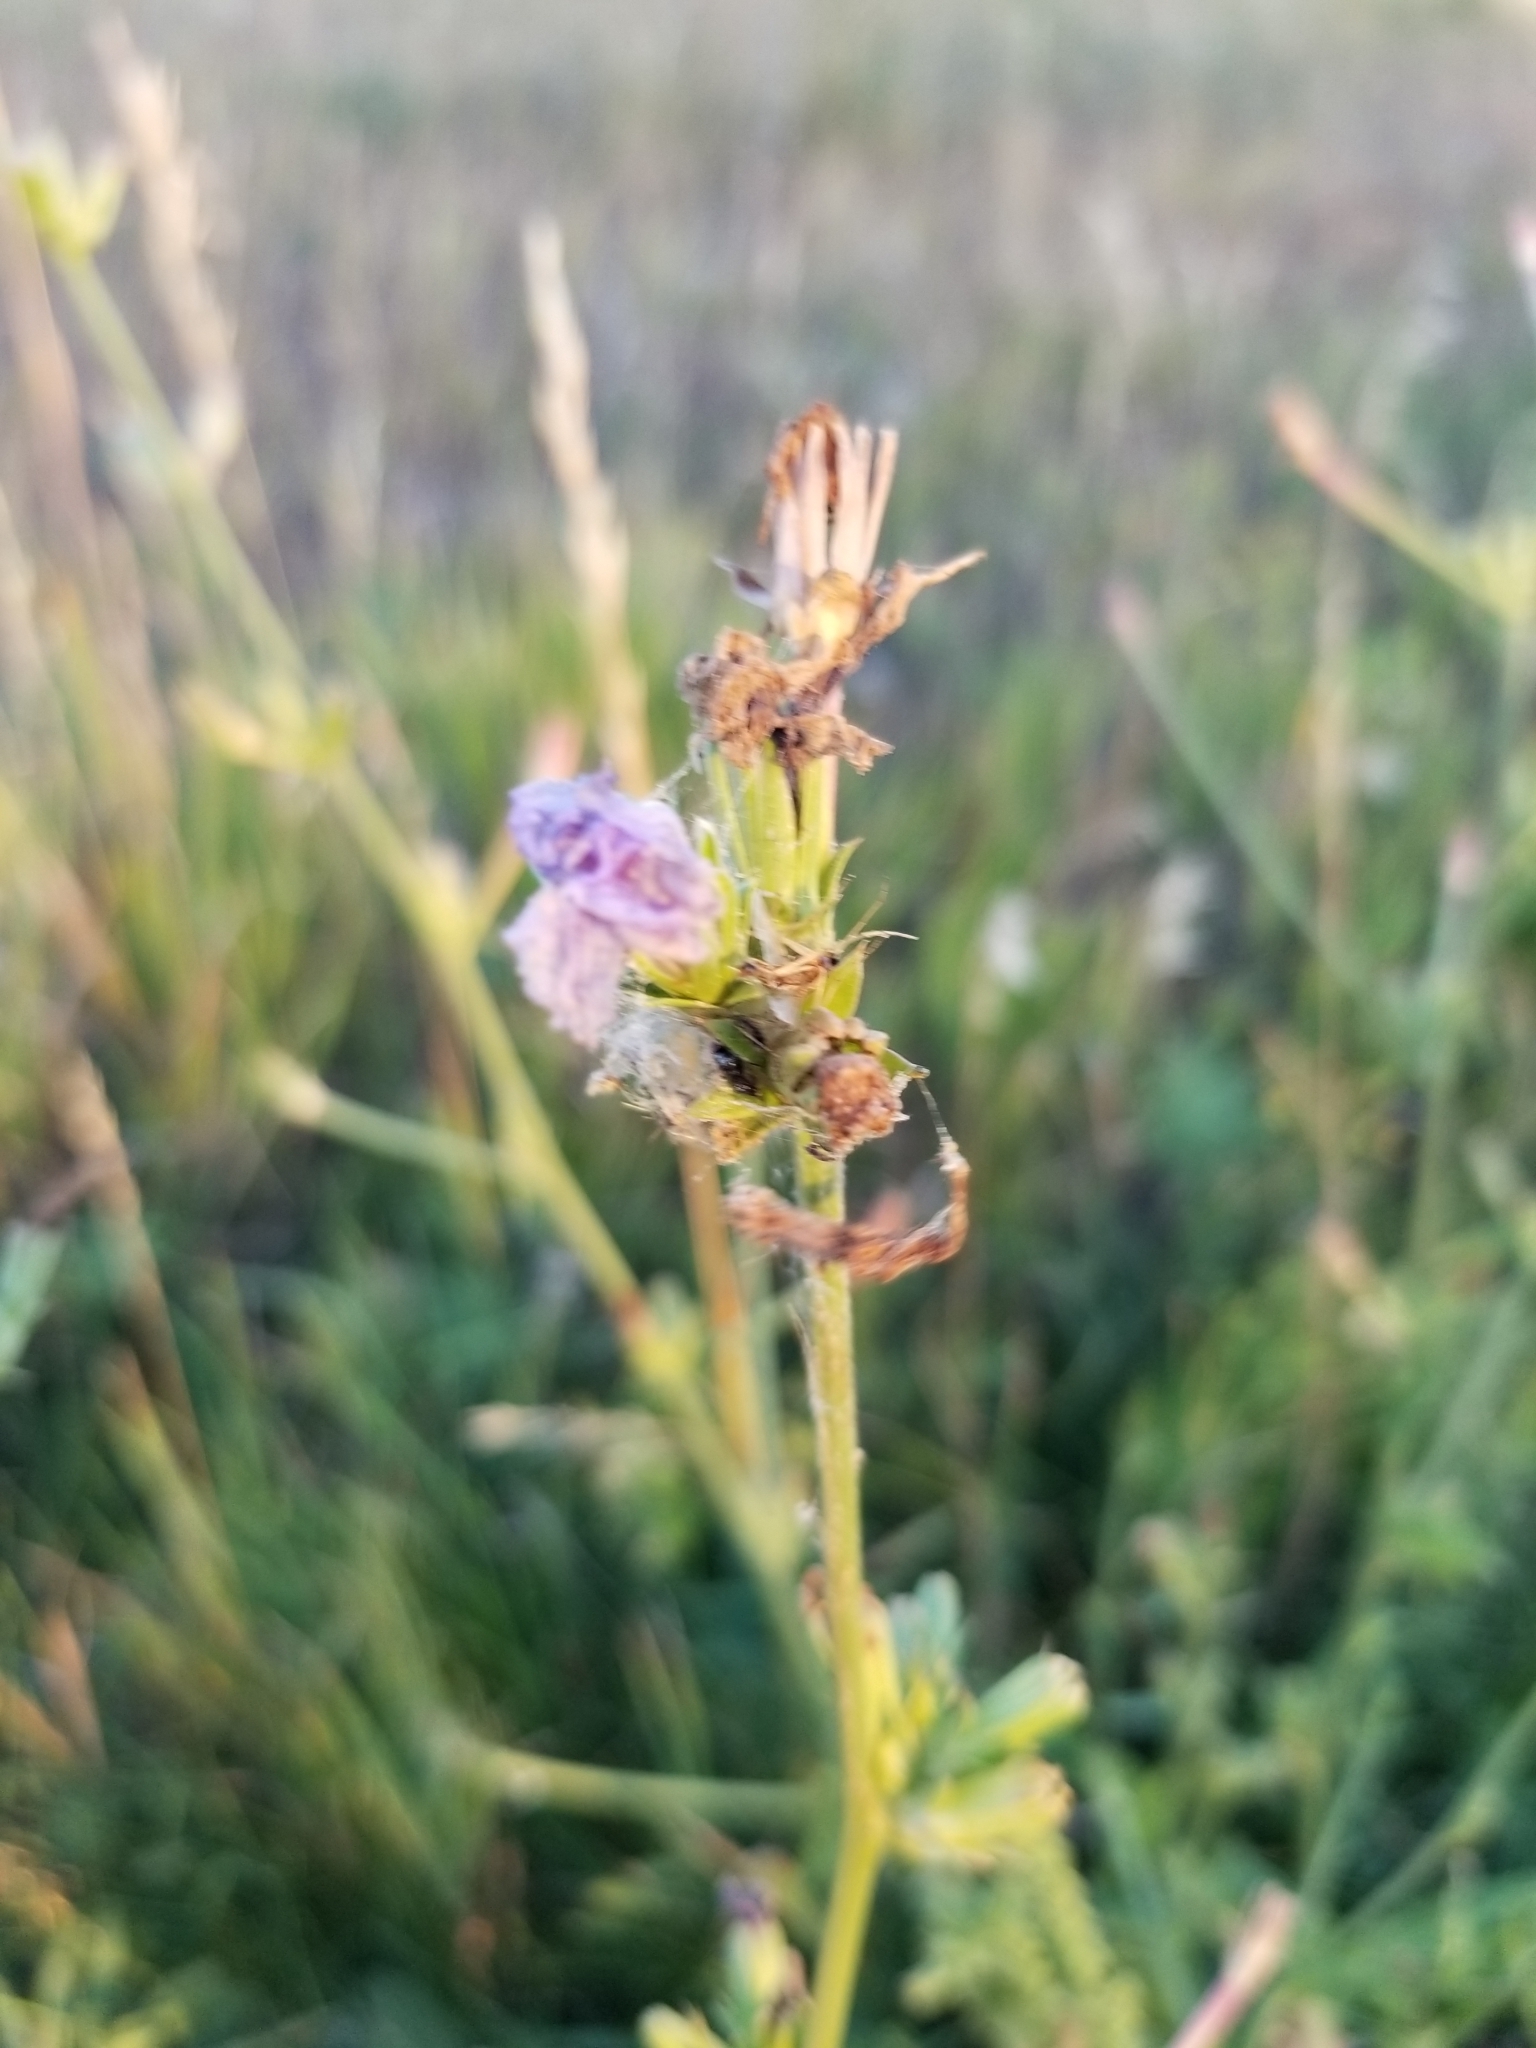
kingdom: Plantae
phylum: Tracheophyta
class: Magnoliopsida
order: Asterales
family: Asteraceae
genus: Cichorium
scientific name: Cichorium intybus
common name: Chicory
